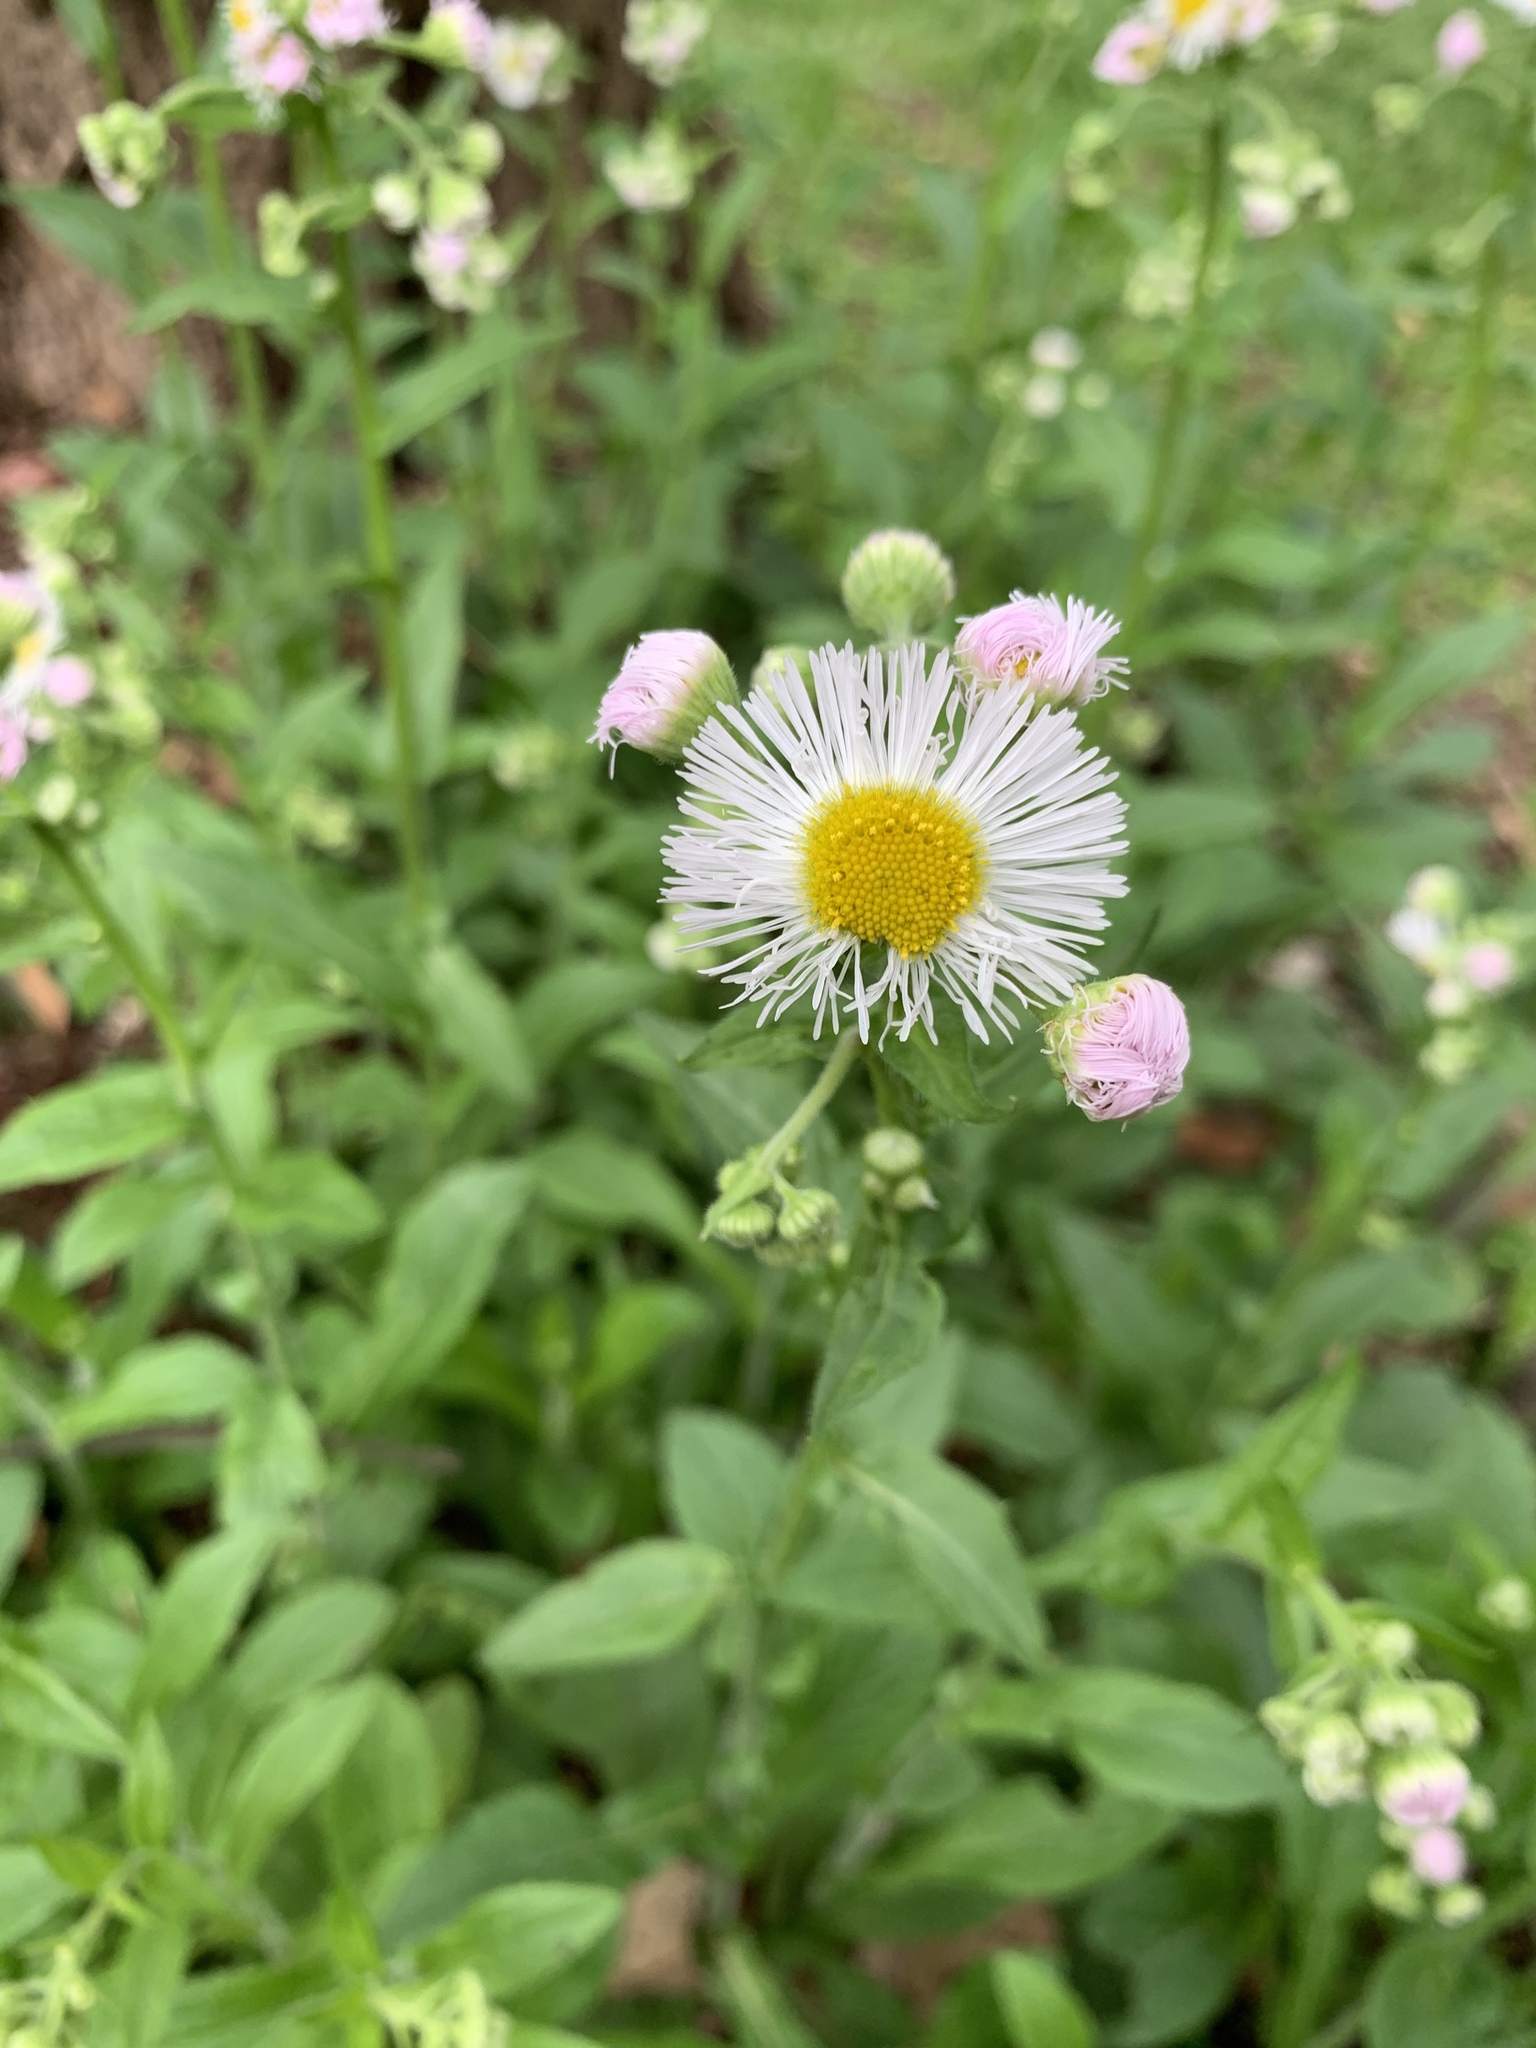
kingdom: Plantae
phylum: Tracheophyta
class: Magnoliopsida
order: Asterales
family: Asteraceae
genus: Erigeron
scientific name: Erigeron annuus
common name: Tall fleabane
